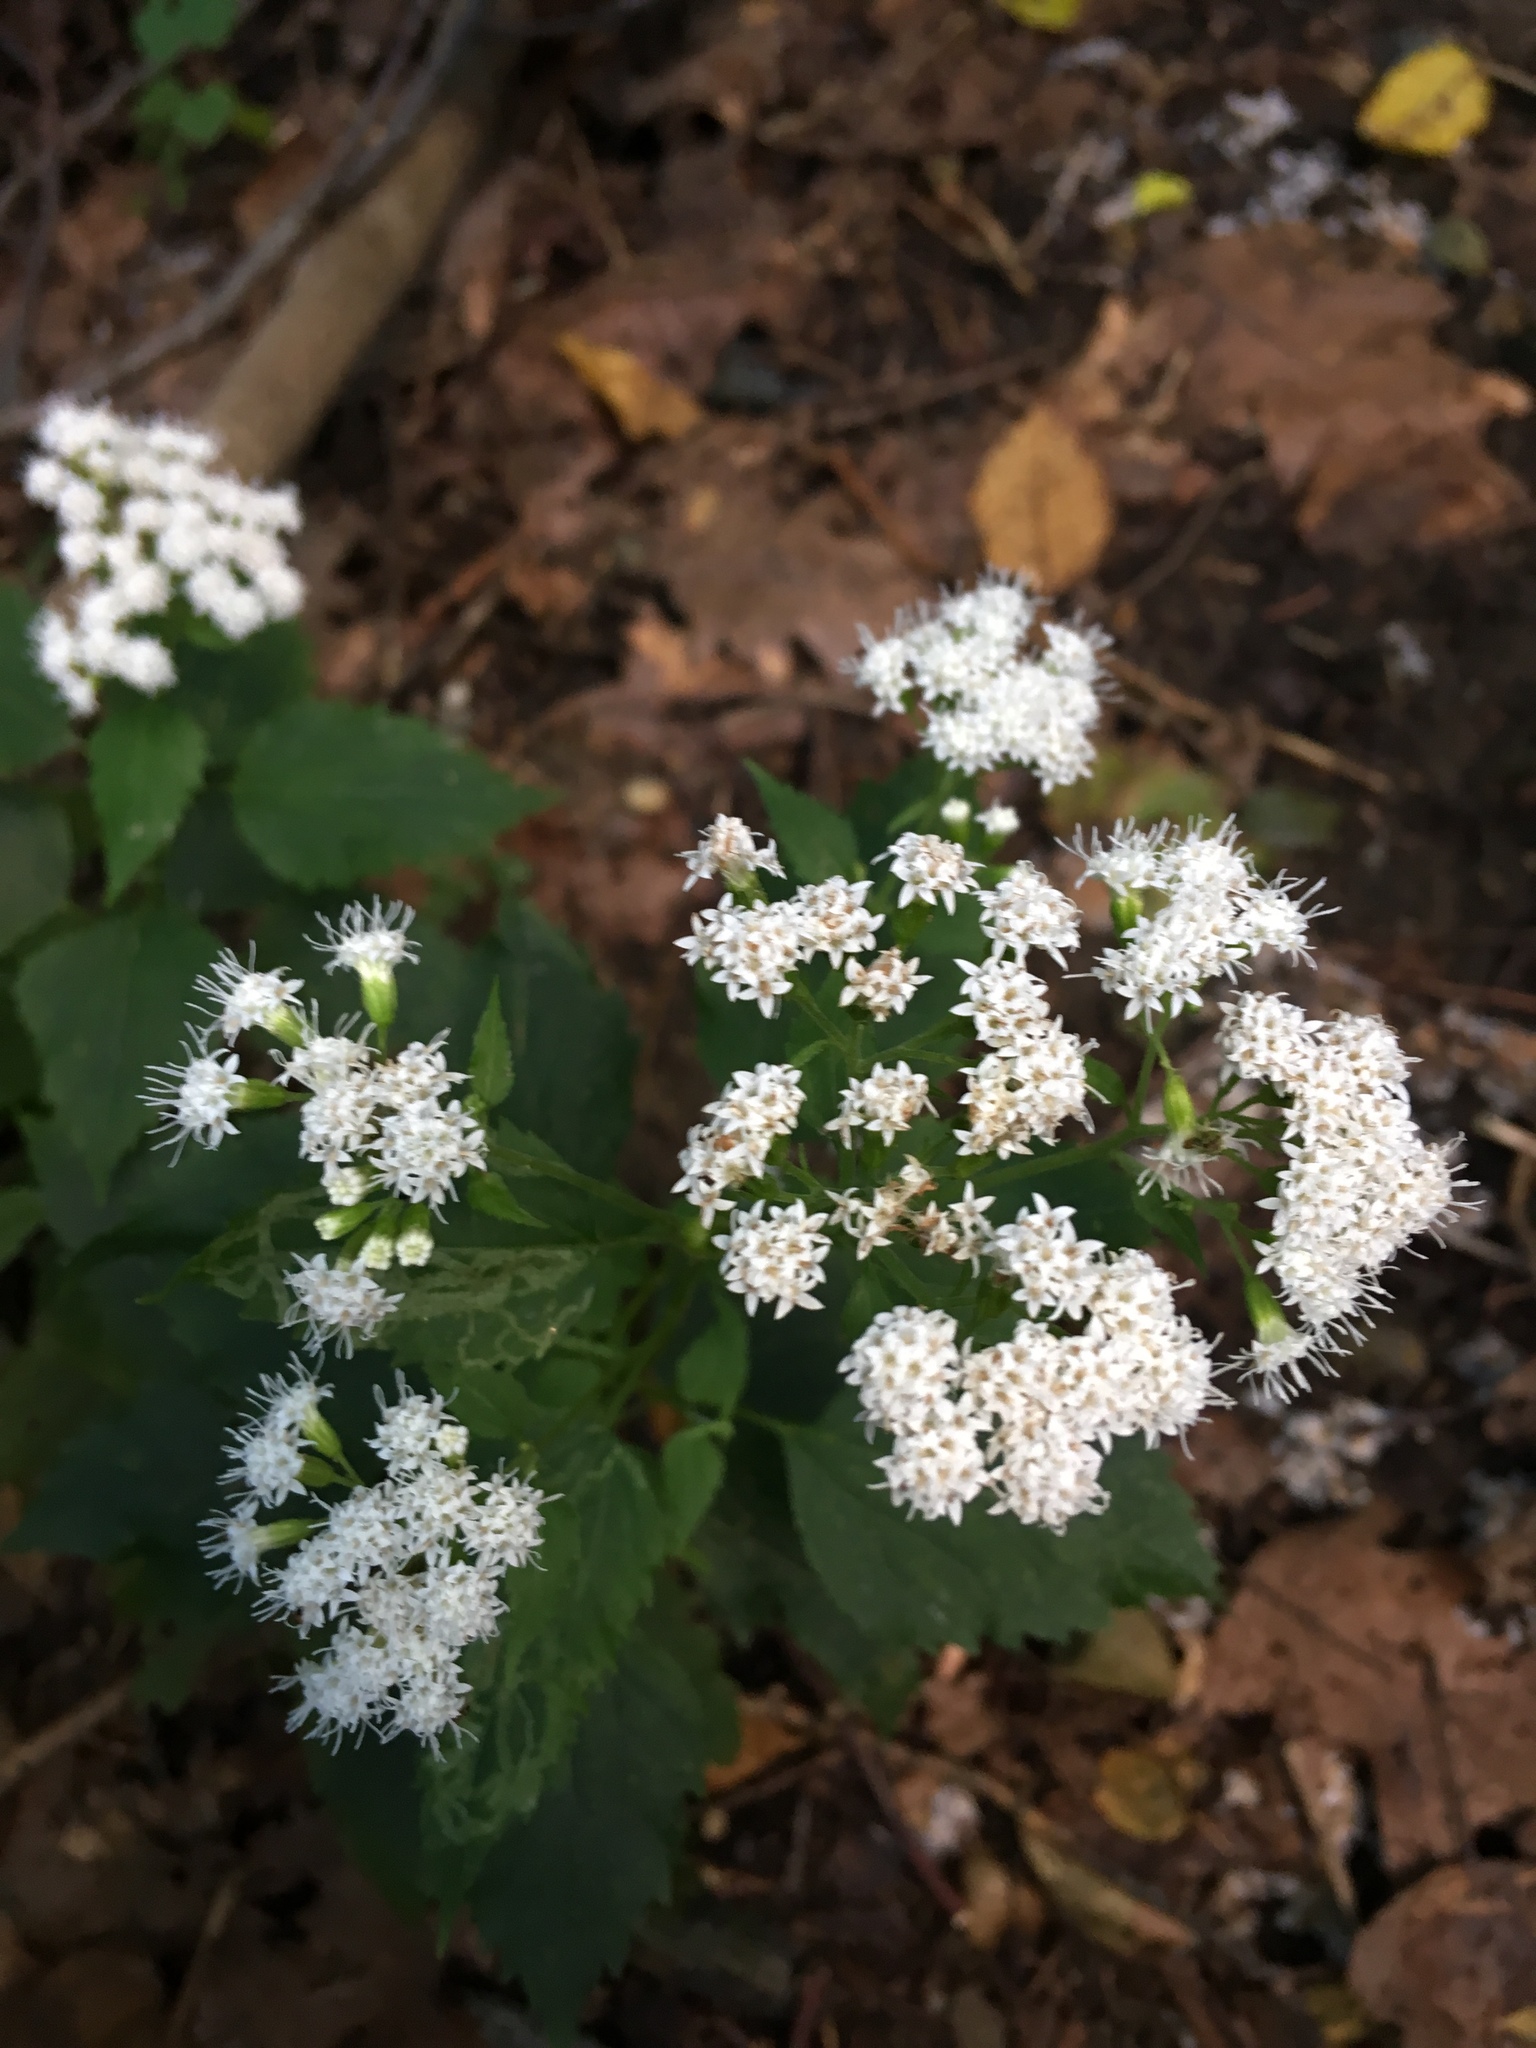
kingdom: Plantae
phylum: Tracheophyta
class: Magnoliopsida
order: Asterales
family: Asteraceae
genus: Ageratina
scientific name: Ageratina altissima
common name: White snakeroot
